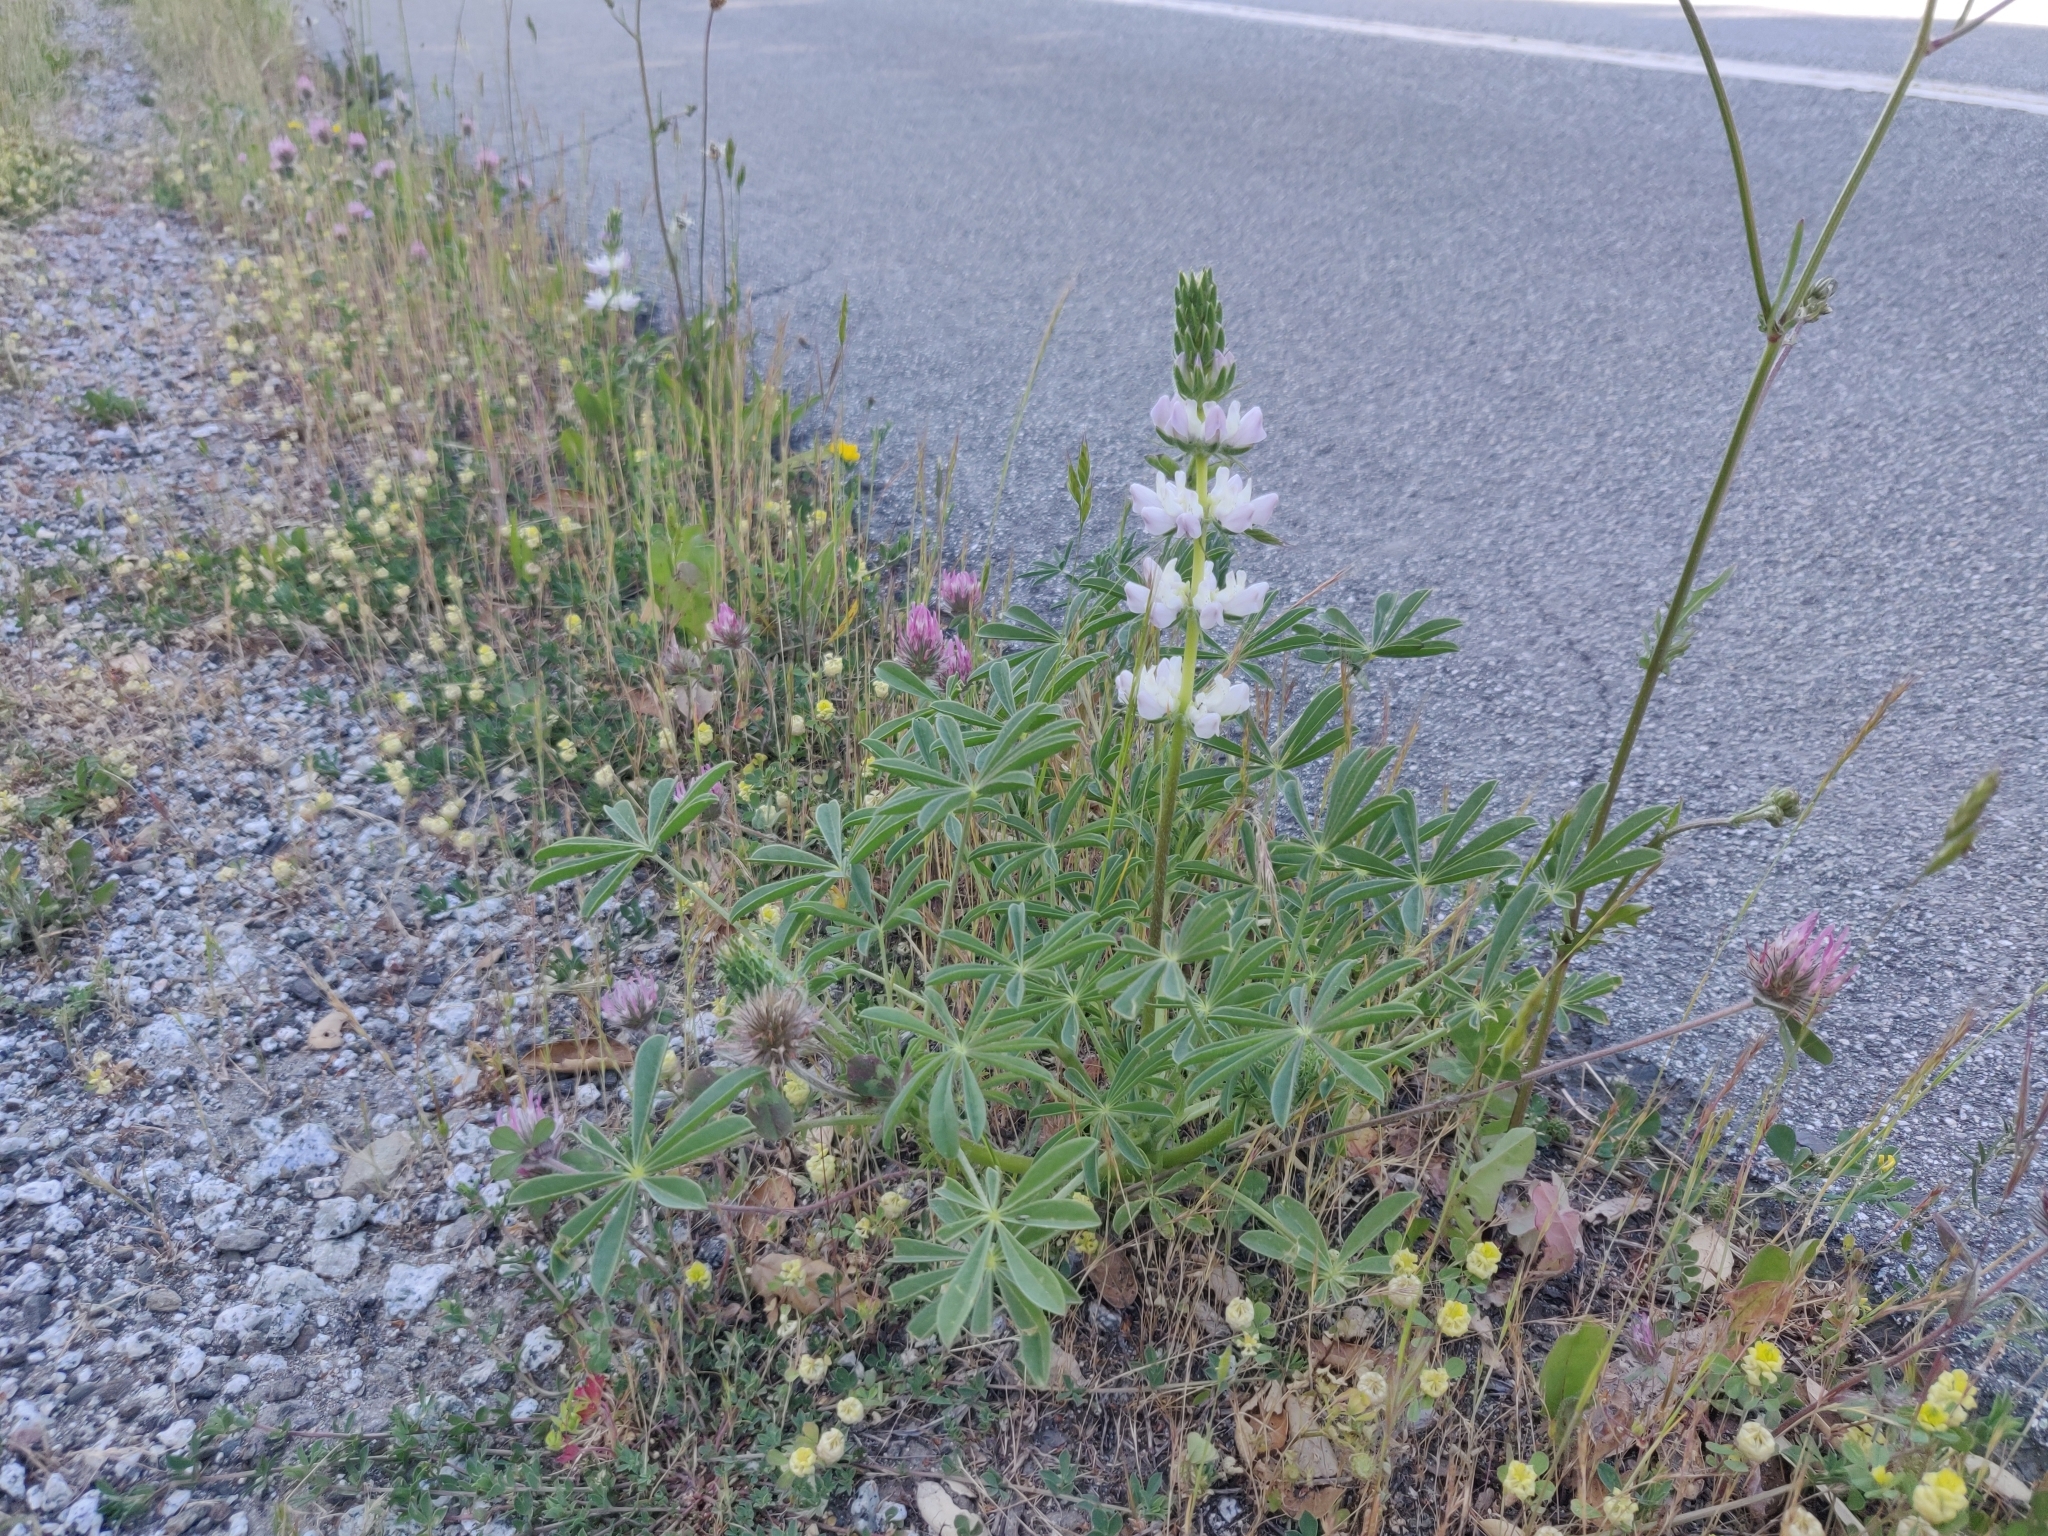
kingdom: Plantae
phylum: Tracheophyta
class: Magnoliopsida
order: Fabales
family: Fabaceae
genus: Lupinus
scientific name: Lupinus microcarpus
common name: Chick lupine
